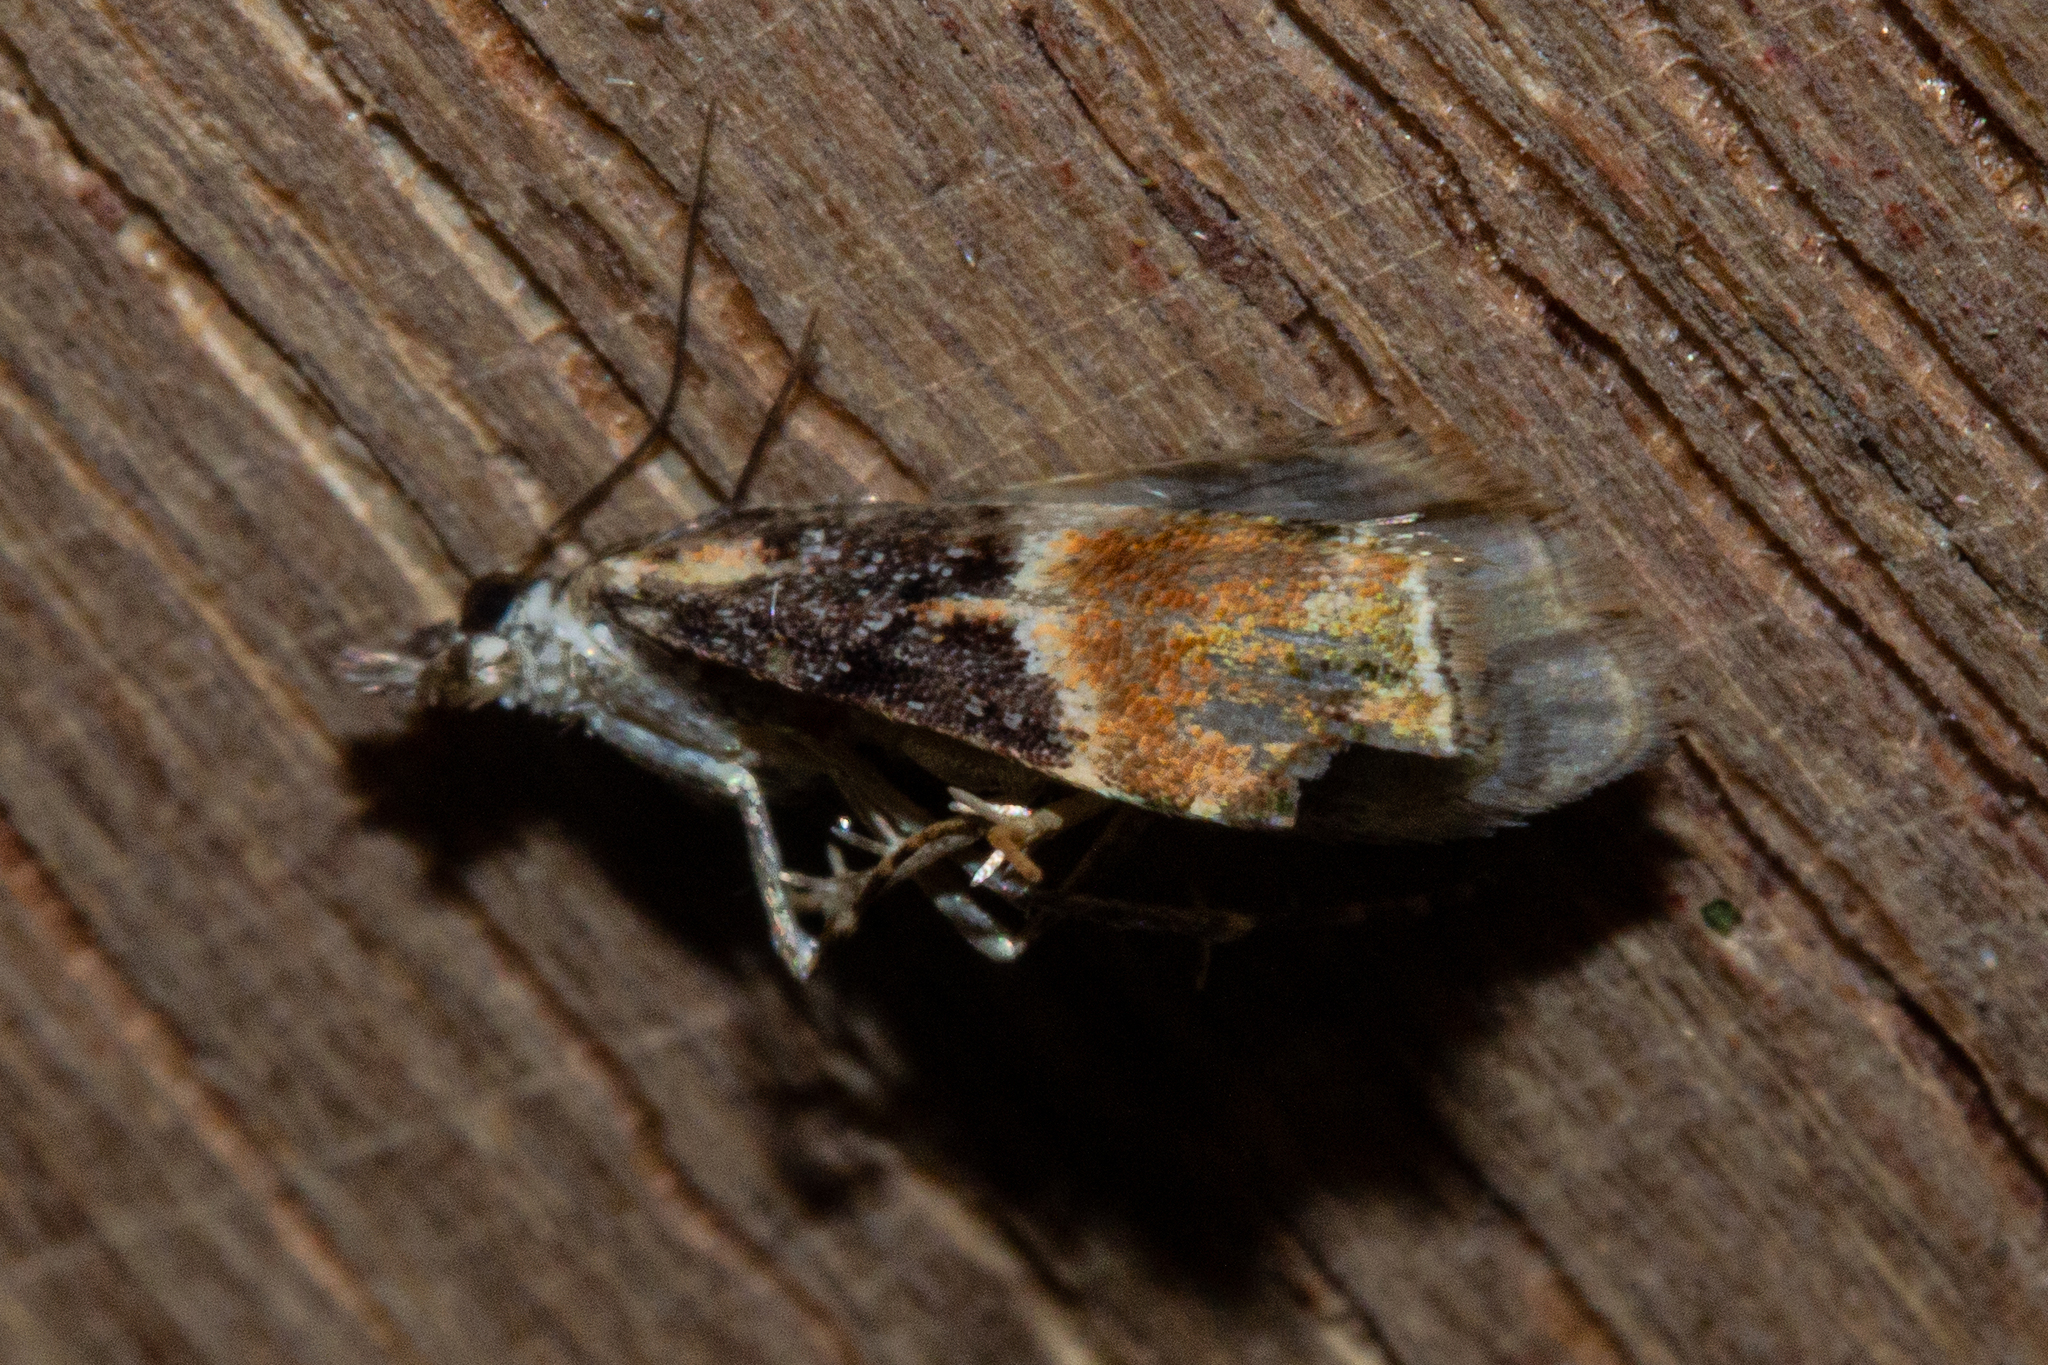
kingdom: Animalia
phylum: Arthropoda
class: Insecta
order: Lepidoptera
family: Crambidae
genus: Eudonia
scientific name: Eudonia chlamydota
